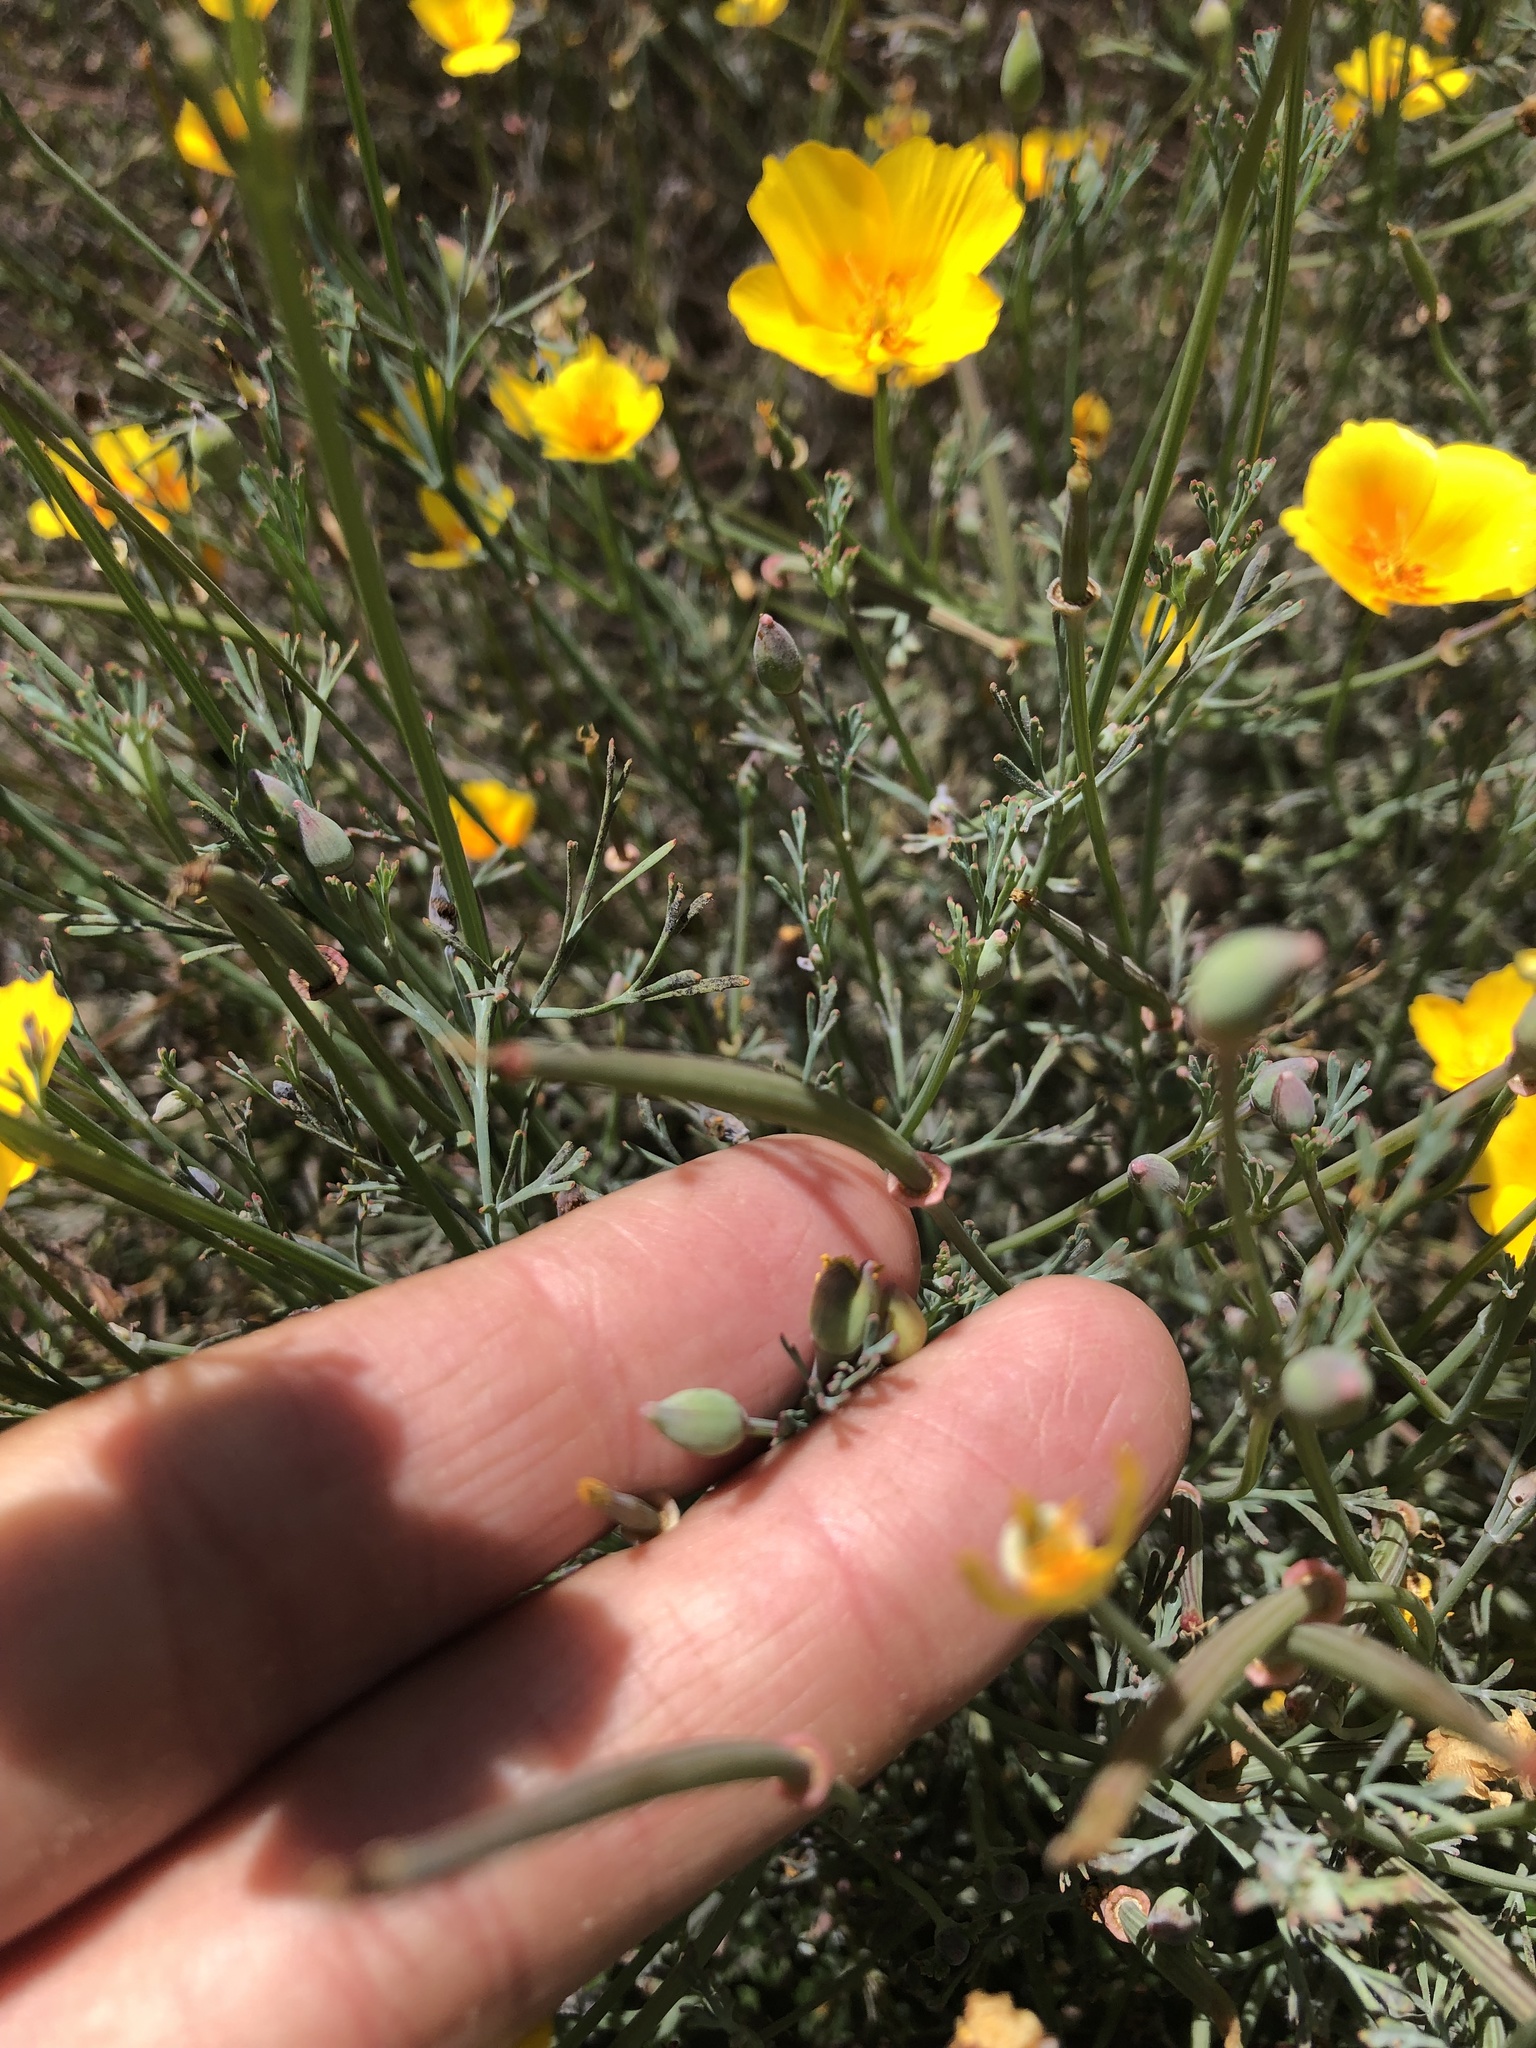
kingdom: Plantae
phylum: Tracheophyta
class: Magnoliopsida
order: Ranunculales
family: Papaveraceae
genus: Eschscholzia
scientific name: Eschscholzia californica
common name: California poppy
